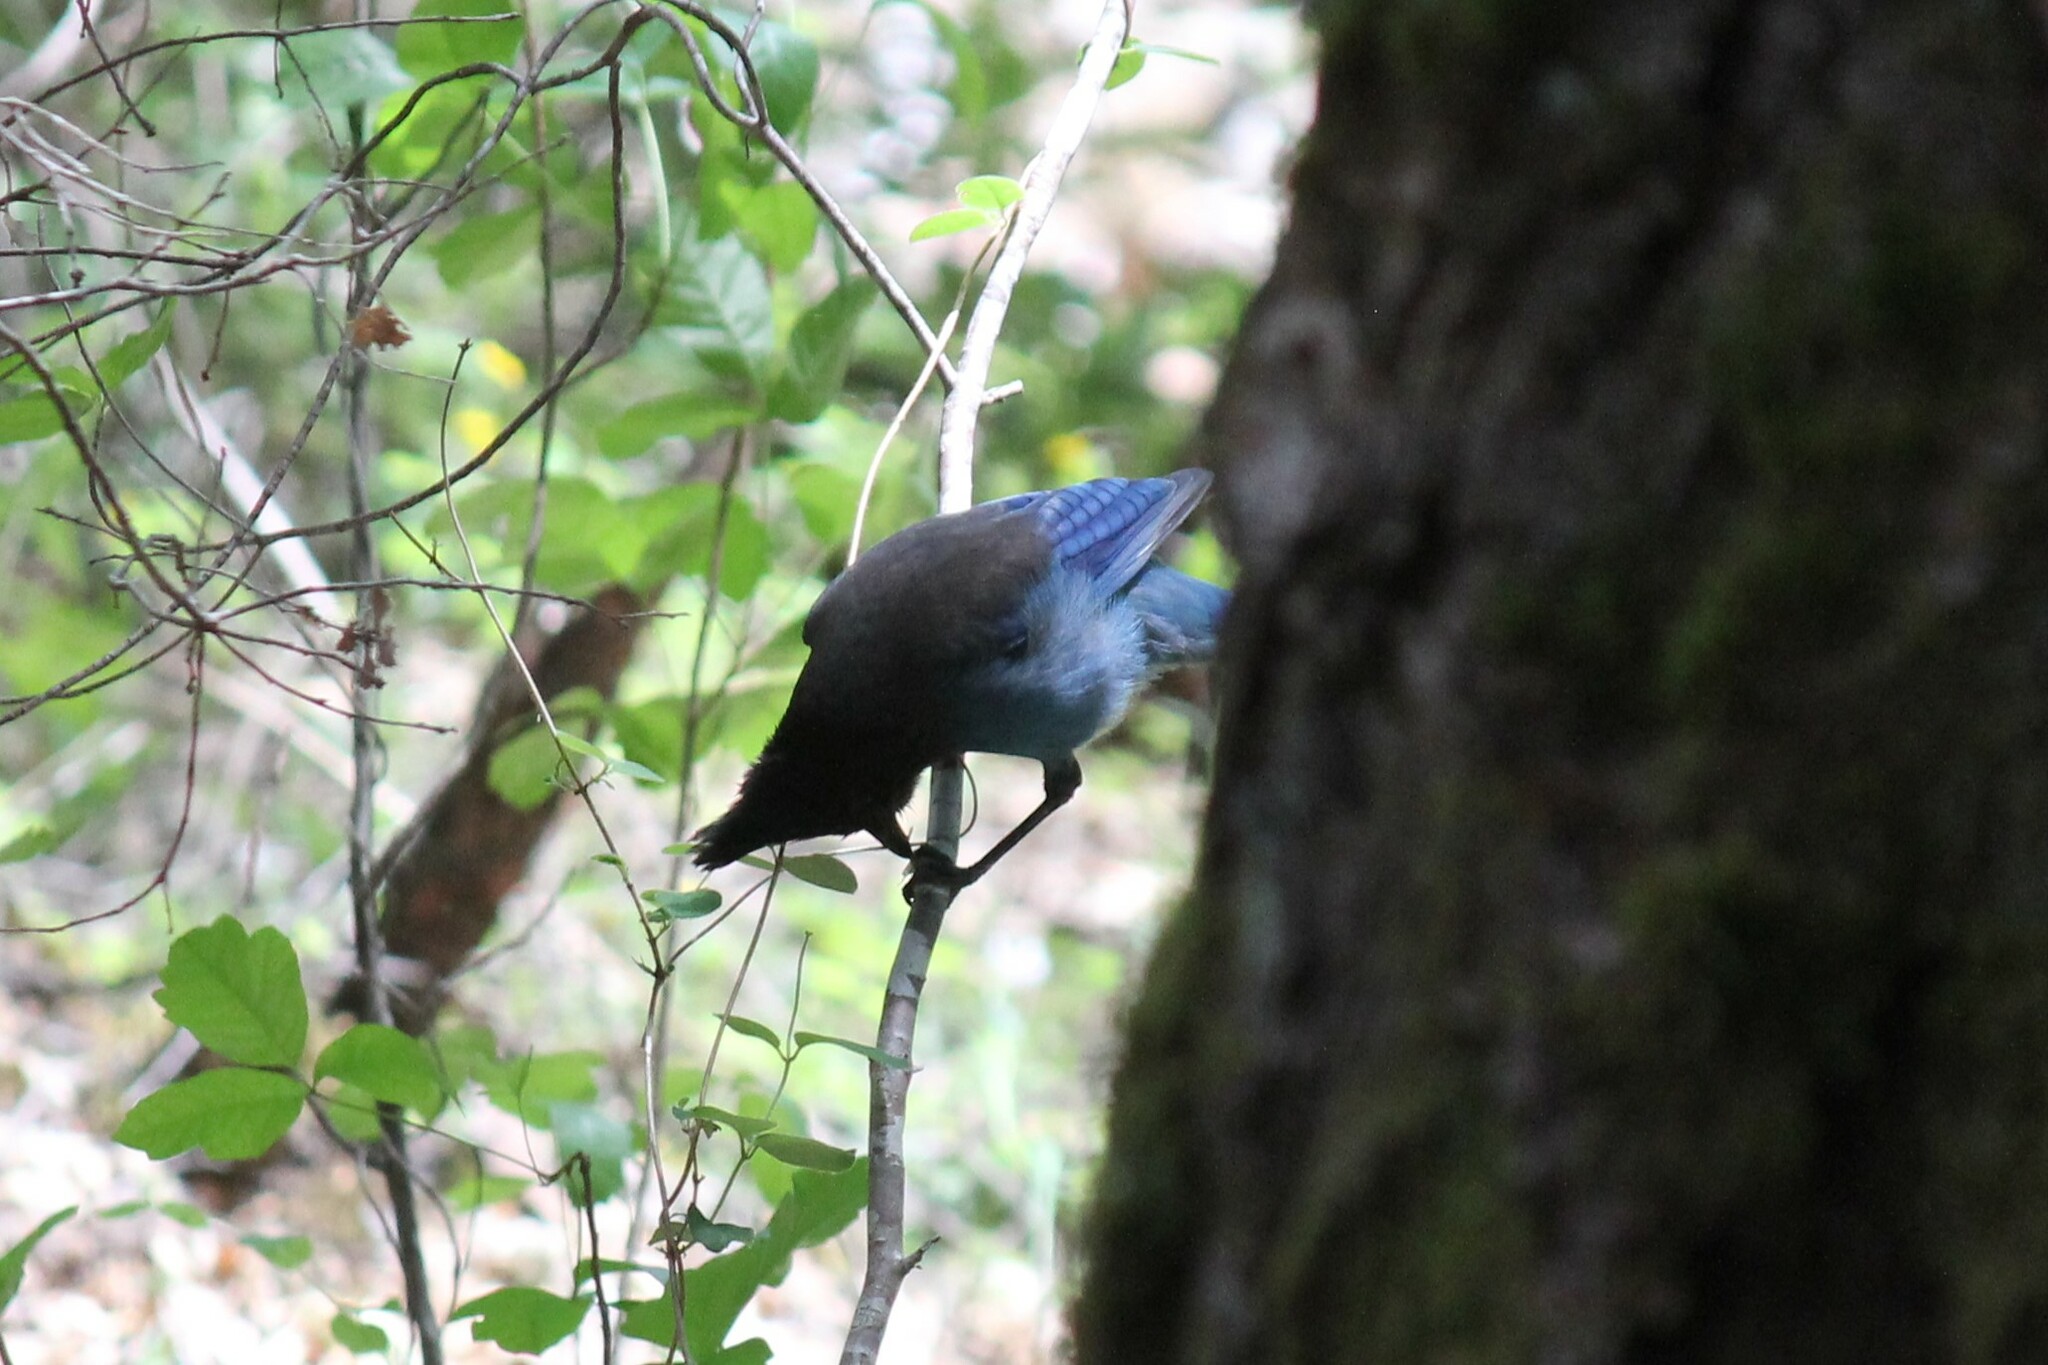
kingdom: Animalia
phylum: Chordata
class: Aves
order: Passeriformes
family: Corvidae
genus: Cyanocitta
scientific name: Cyanocitta stelleri
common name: Steller's jay
